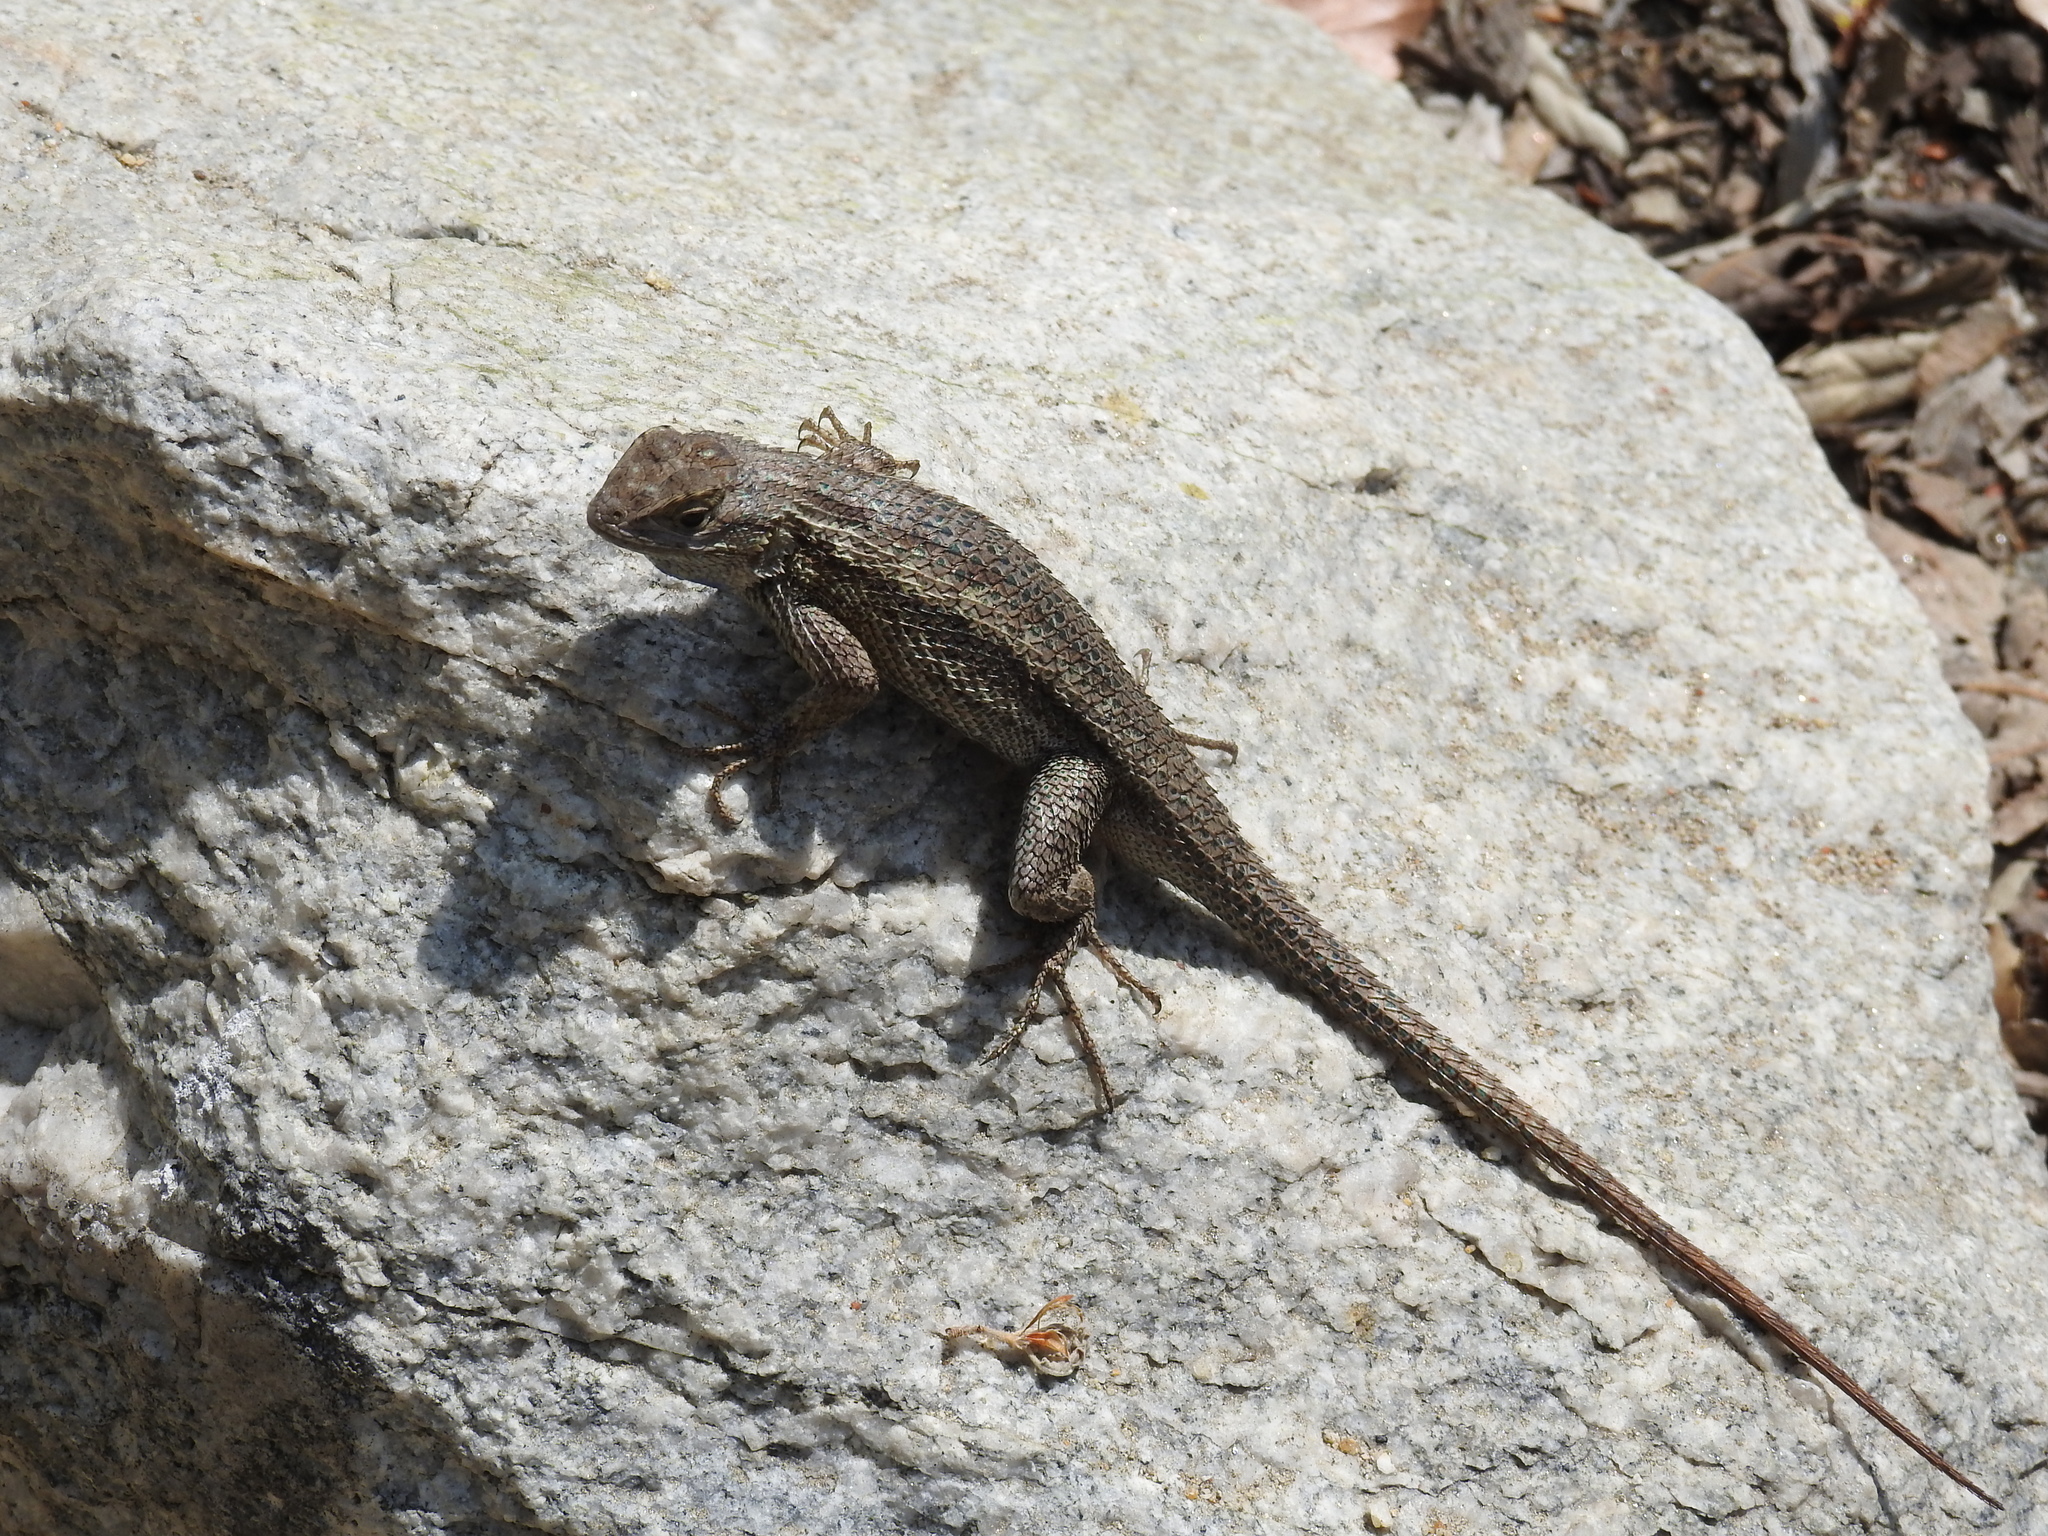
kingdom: Animalia
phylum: Chordata
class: Squamata
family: Phrynosomatidae
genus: Sceloporus
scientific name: Sceloporus occidentalis
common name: Western fence lizard
